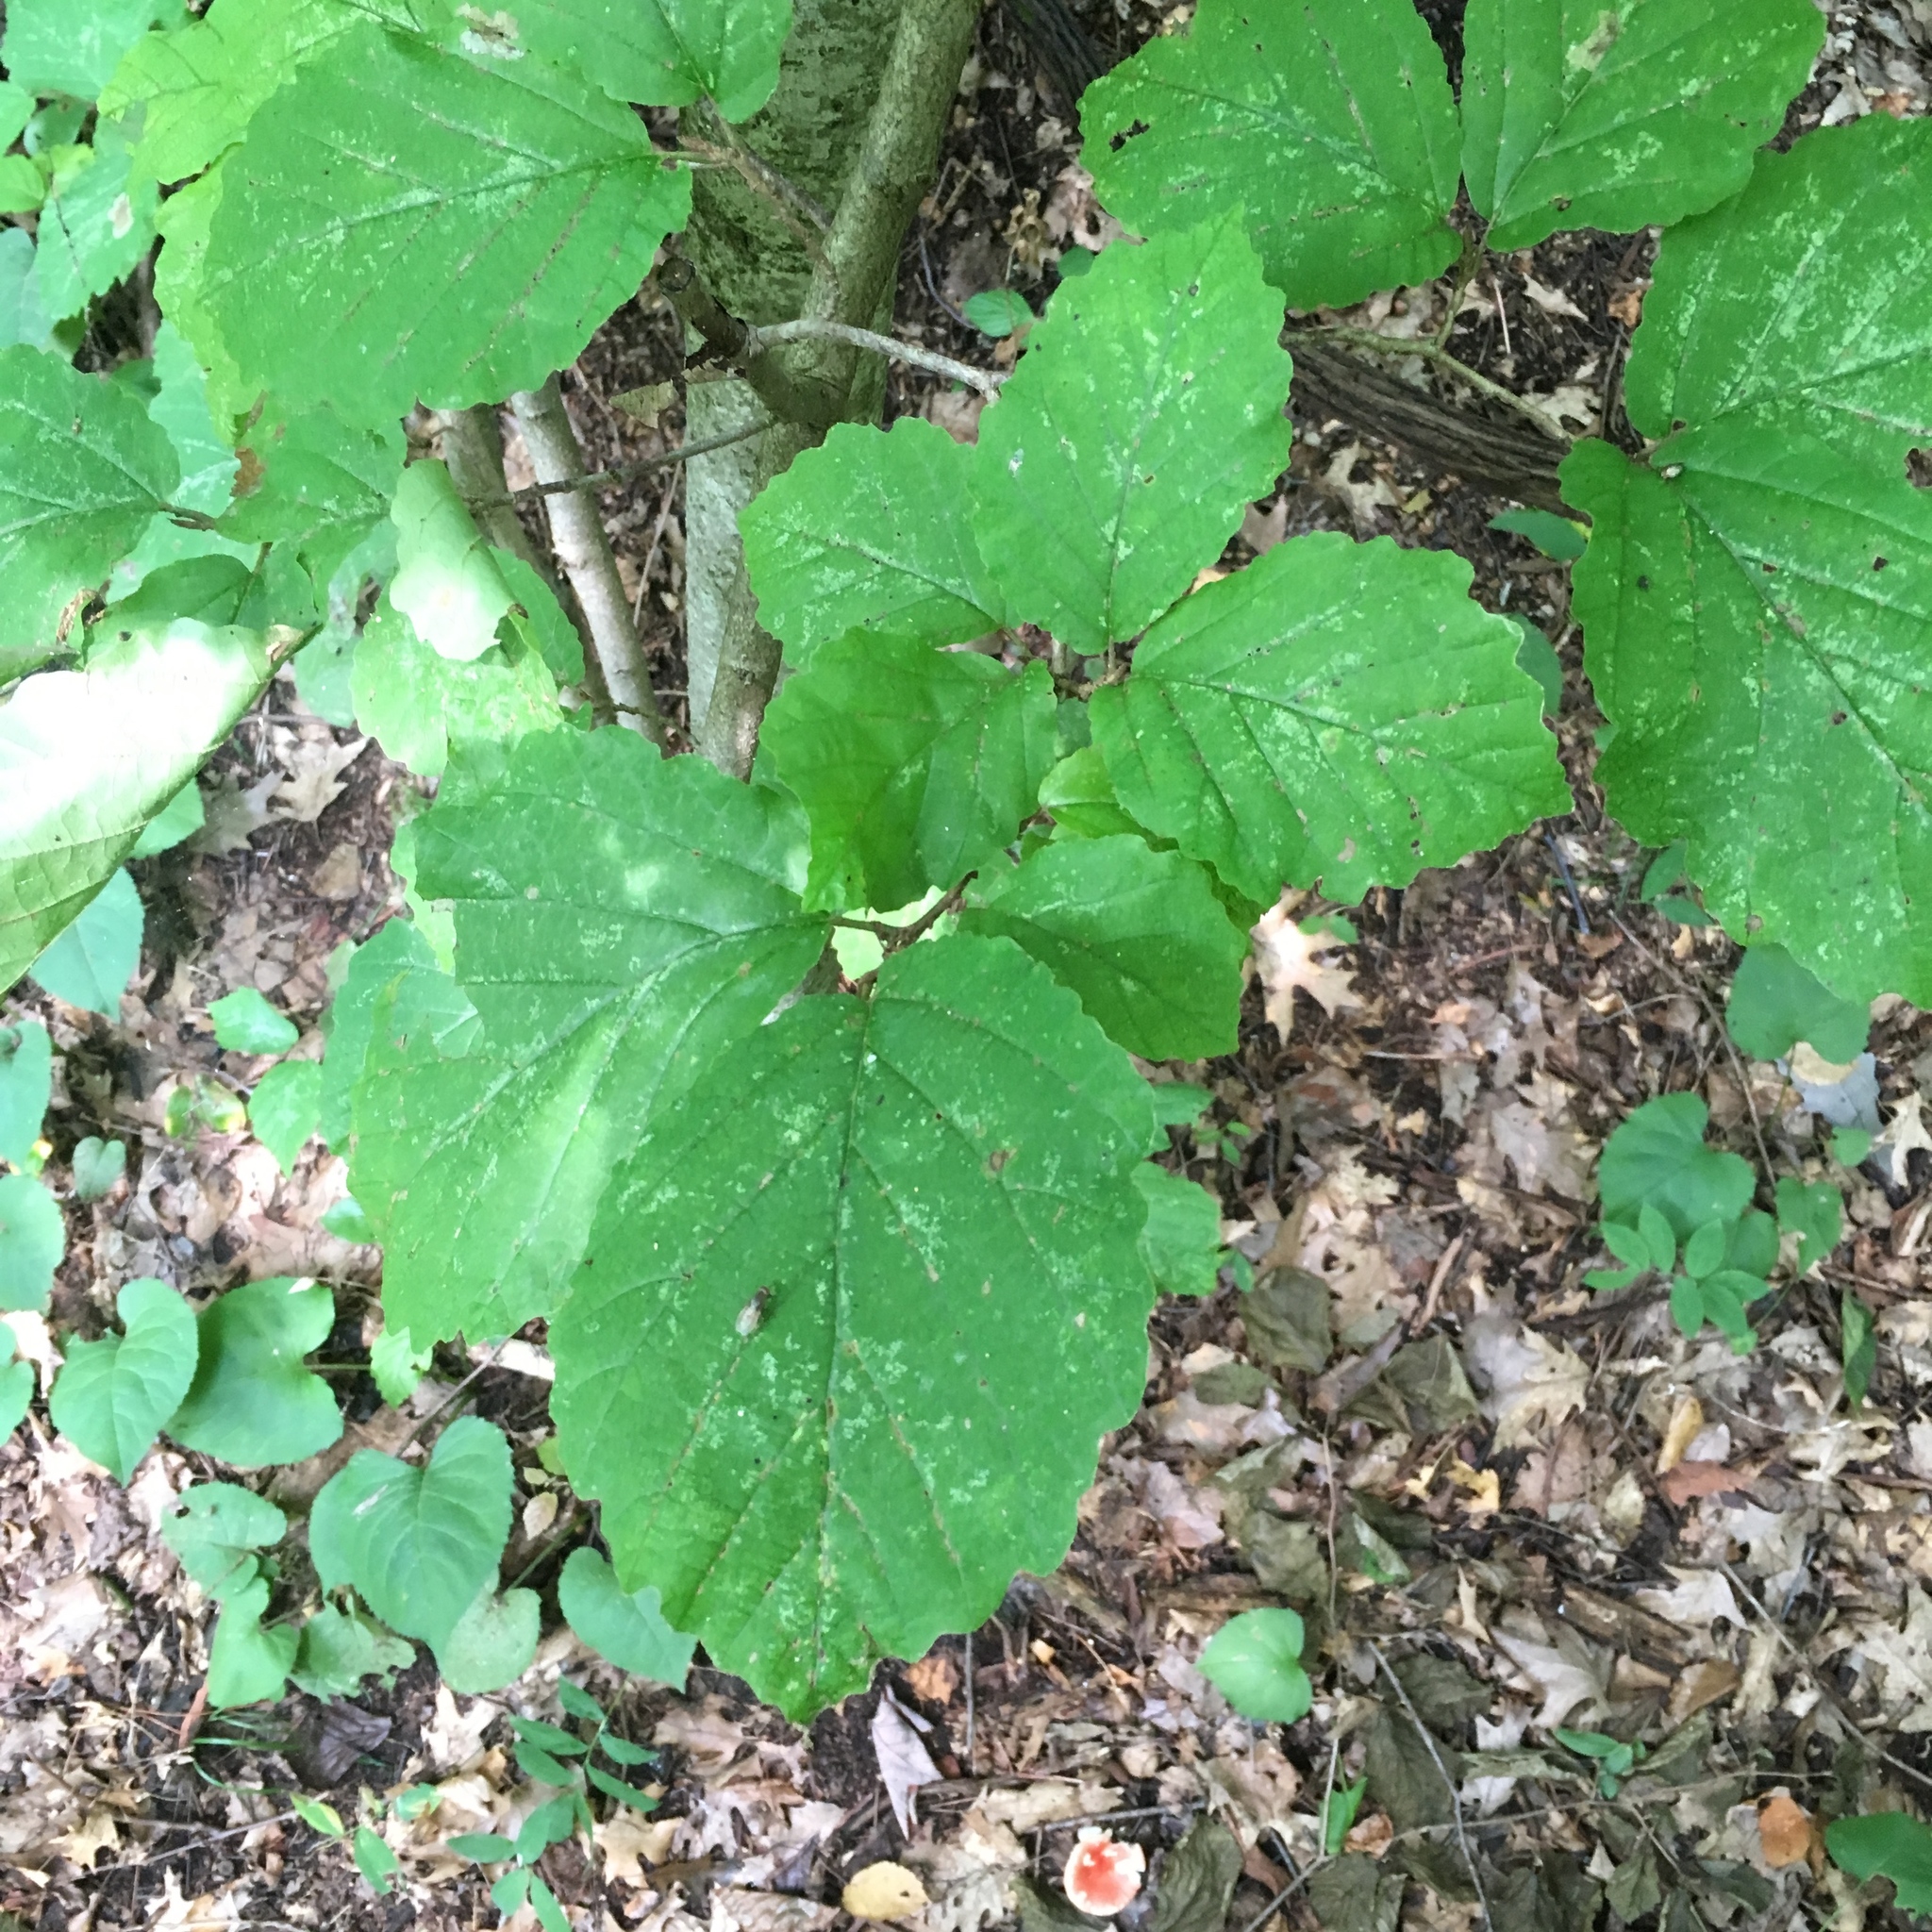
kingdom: Plantae
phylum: Tracheophyta
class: Magnoliopsida
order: Saxifragales
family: Hamamelidaceae
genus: Hamamelis
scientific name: Hamamelis virginiana
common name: Witch-hazel
